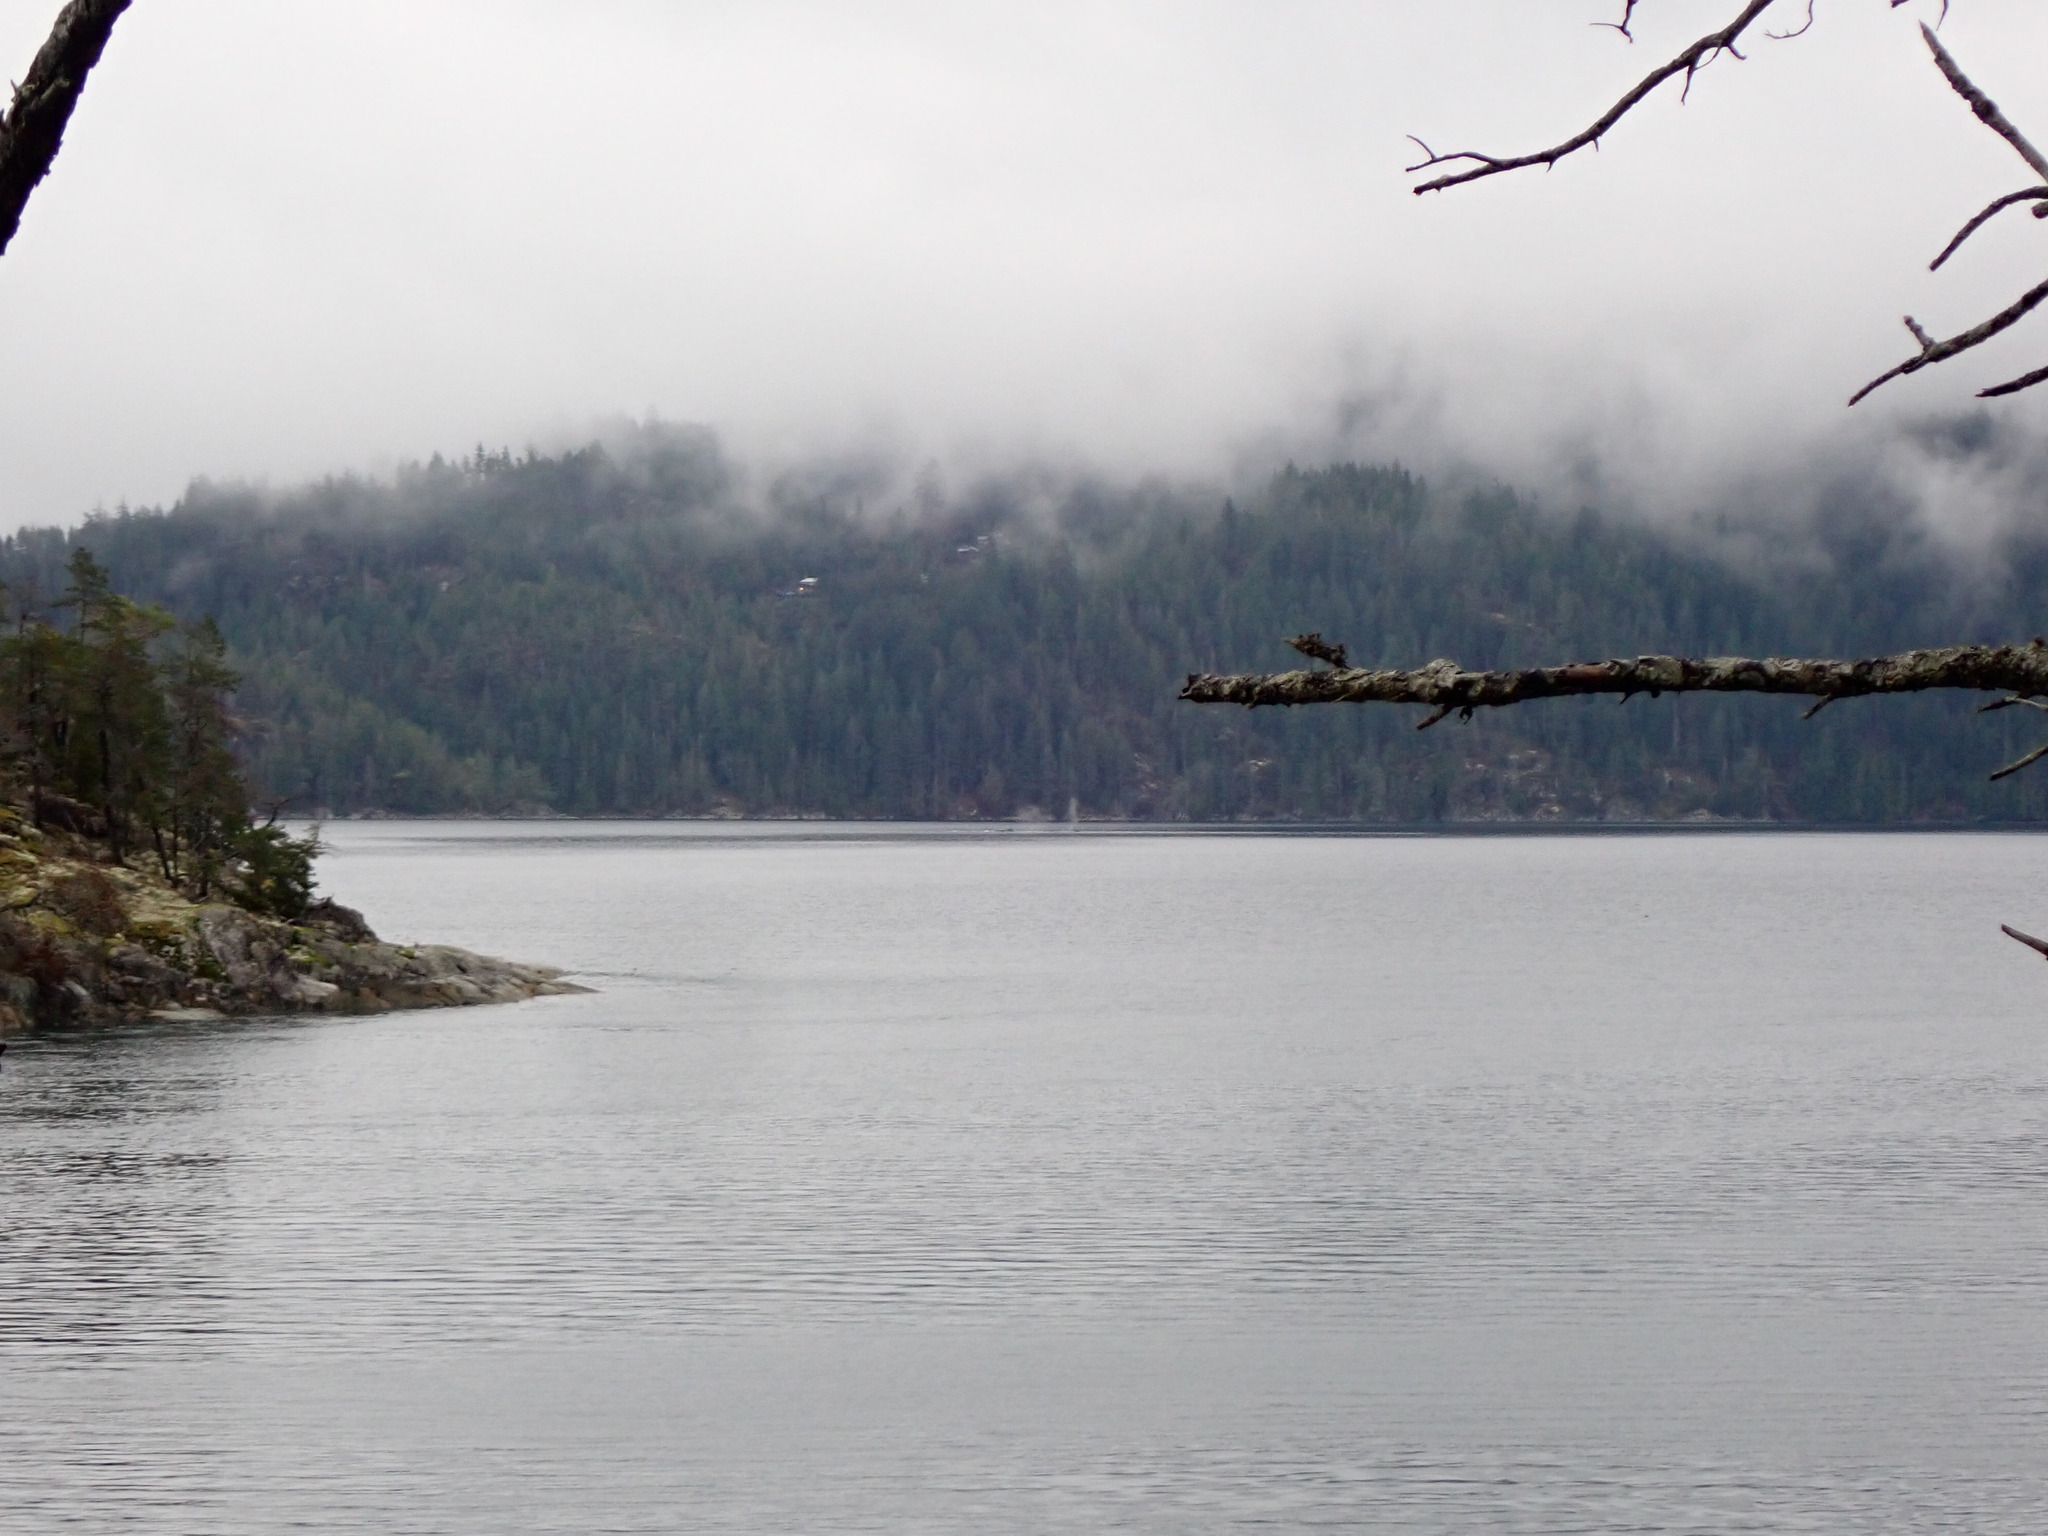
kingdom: Animalia
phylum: Chordata
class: Mammalia
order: Cetacea
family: Balaenopteridae
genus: Megaptera
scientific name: Megaptera novaeangliae
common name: Humpback whale
